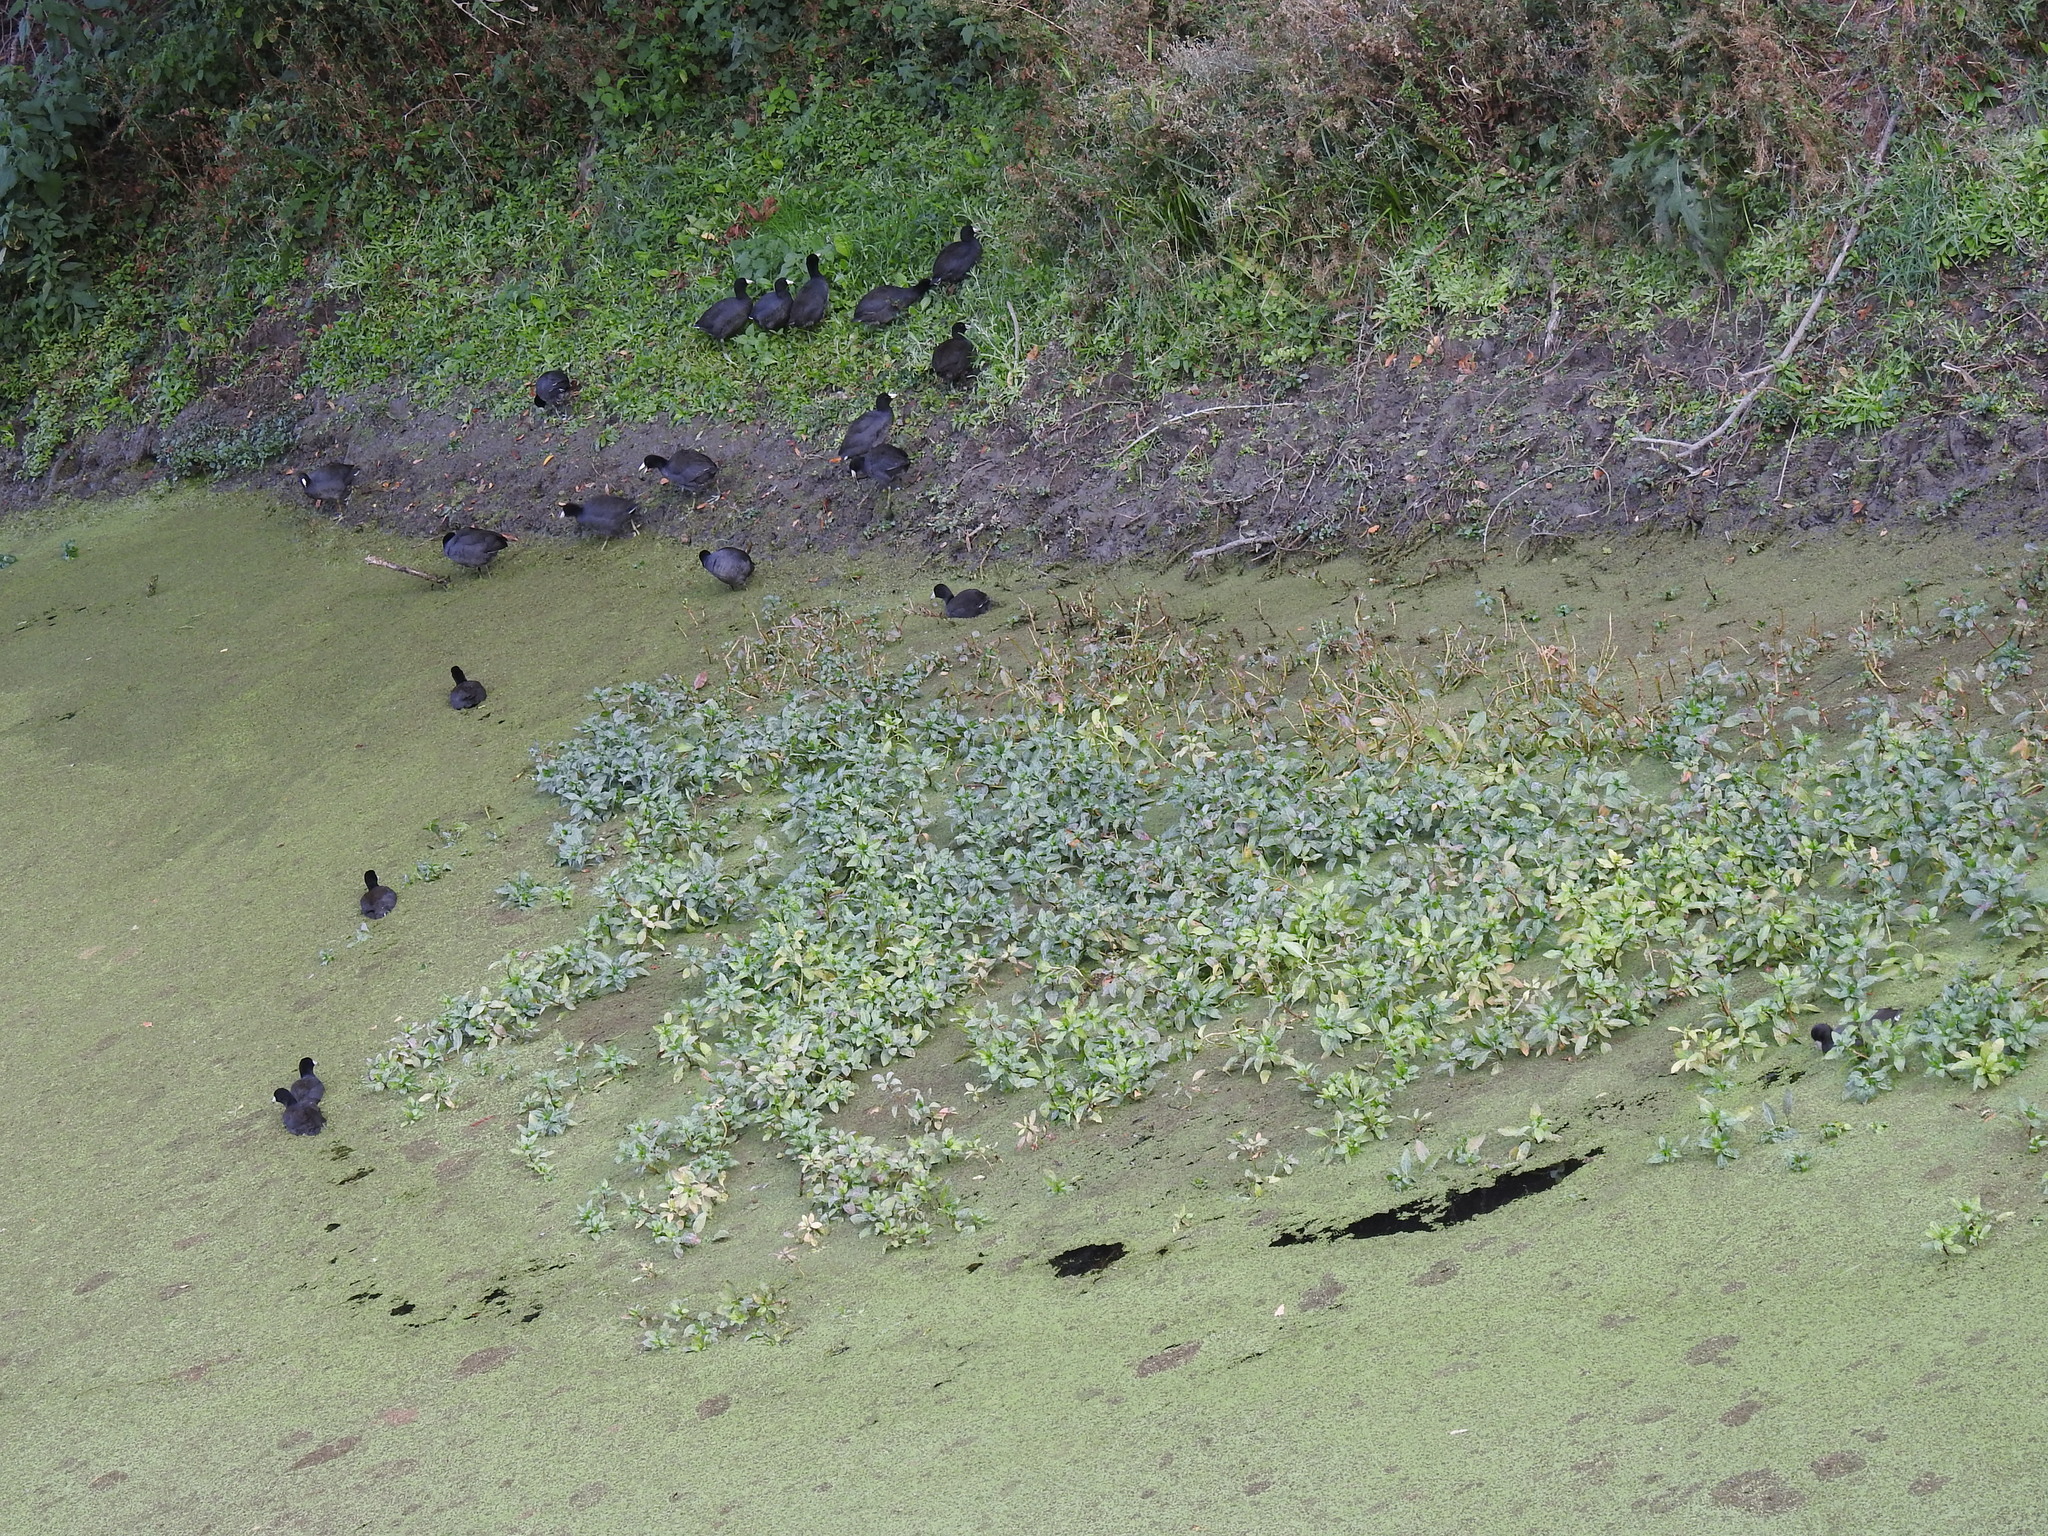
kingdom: Animalia
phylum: Chordata
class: Aves
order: Gruiformes
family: Rallidae
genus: Fulica
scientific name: Fulica americana
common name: American coot
